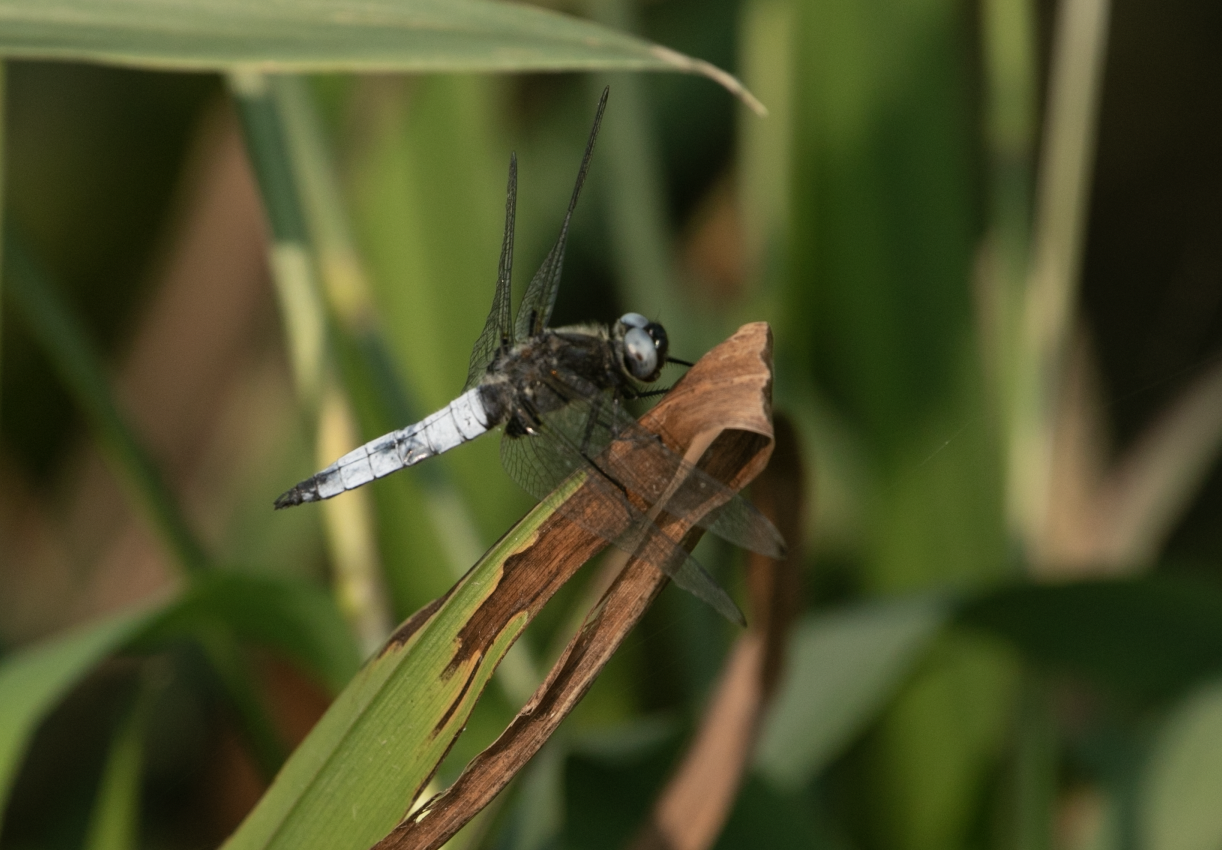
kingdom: Animalia
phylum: Arthropoda
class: Insecta
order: Odonata
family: Libellulidae
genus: Libellula
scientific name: Libellula fulva
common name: Blue chaser
